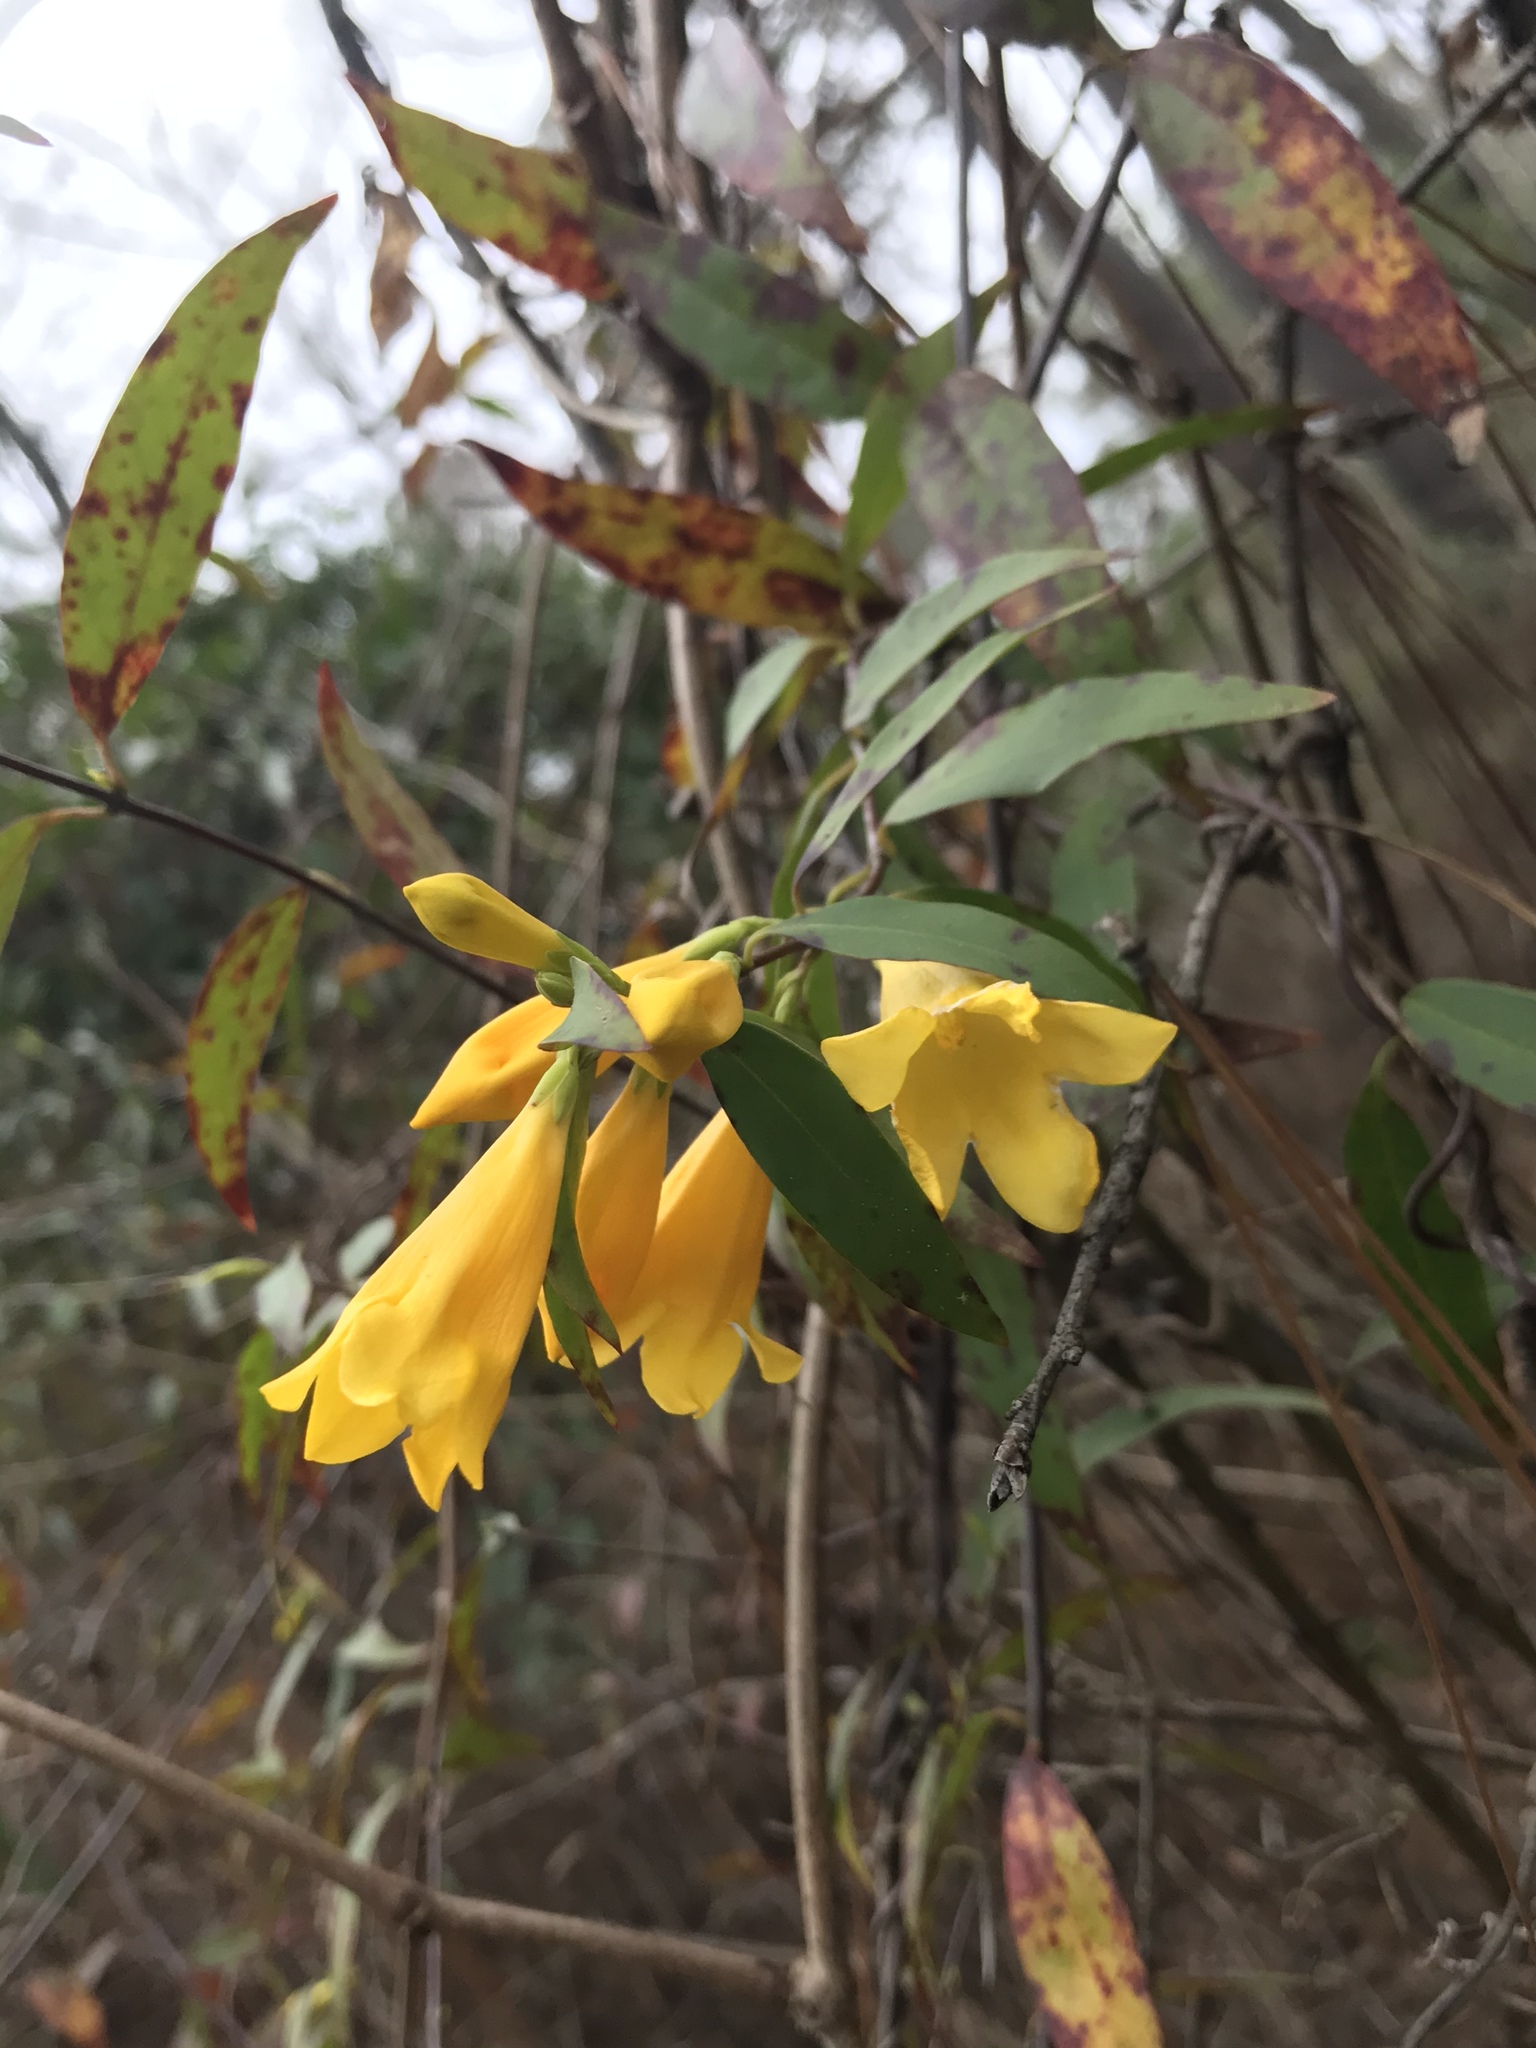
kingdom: Plantae
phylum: Tracheophyta
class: Magnoliopsida
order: Gentianales
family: Gelsemiaceae
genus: Gelsemium
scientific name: Gelsemium sempervirens
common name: Carolina-jasmine
